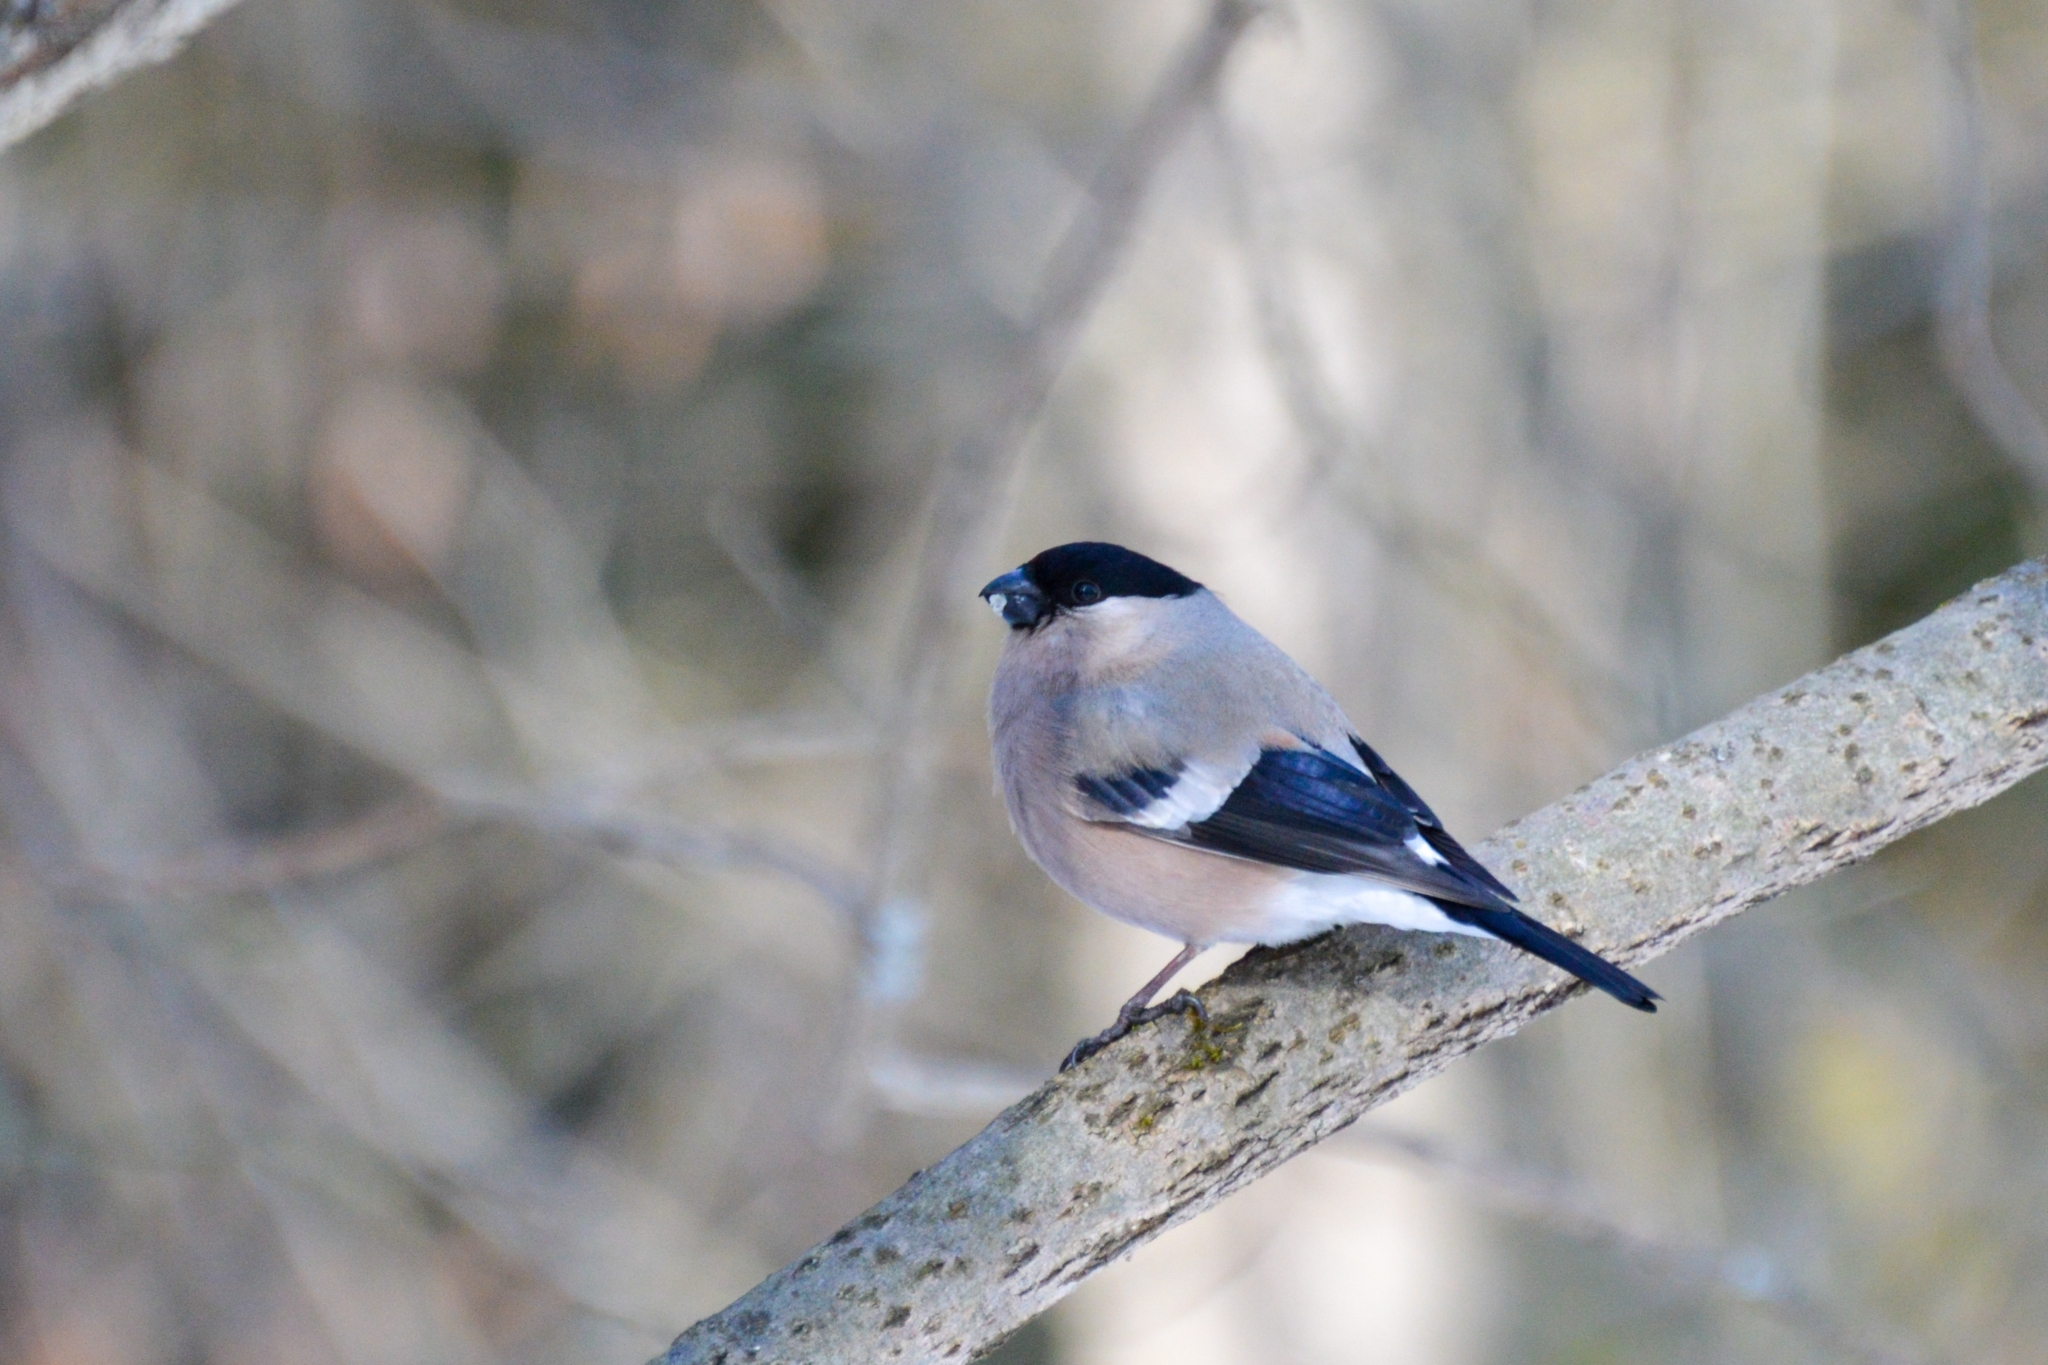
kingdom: Animalia
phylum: Chordata
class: Aves
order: Passeriformes
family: Fringillidae
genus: Pyrrhula
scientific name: Pyrrhula pyrrhula
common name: Eurasian bullfinch
